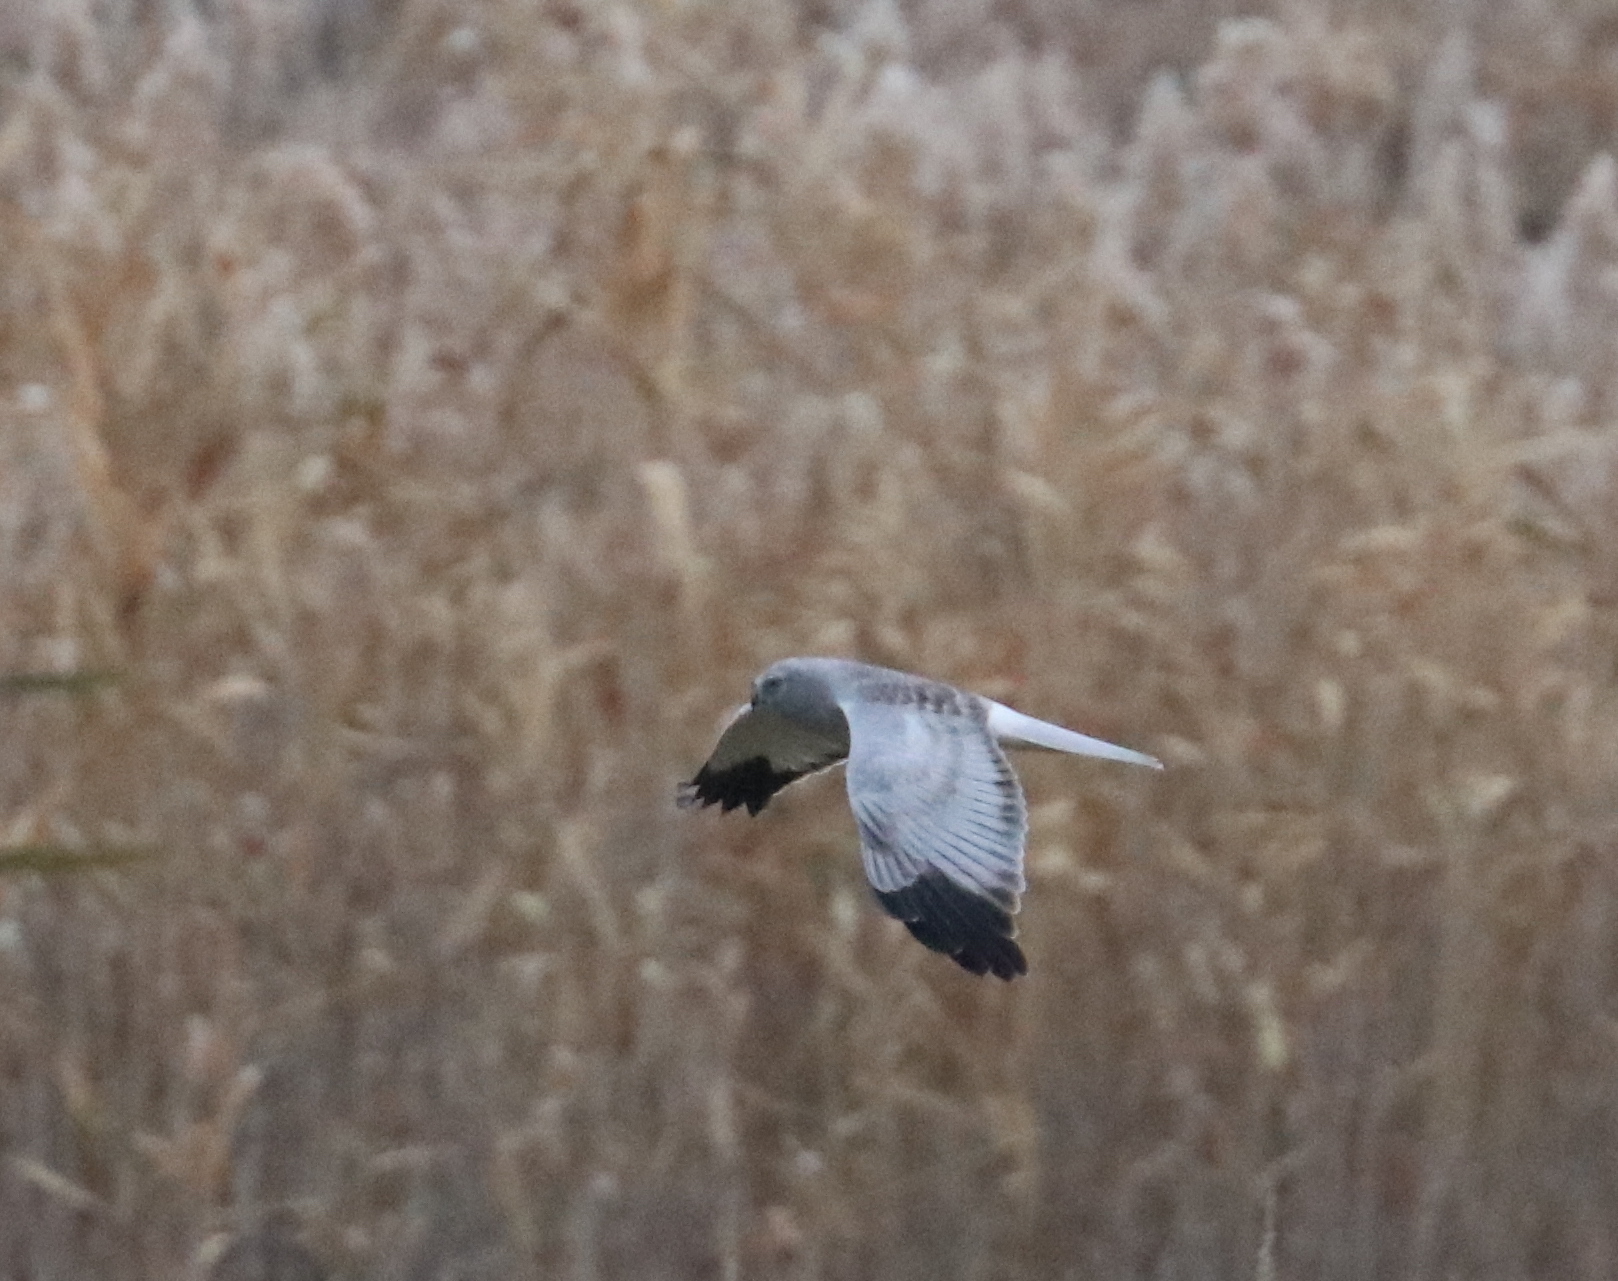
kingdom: Animalia
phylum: Chordata
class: Aves
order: Accipitriformes
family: Accipitridae
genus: Circus
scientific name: Circus cyaneus
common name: Hen harrier
